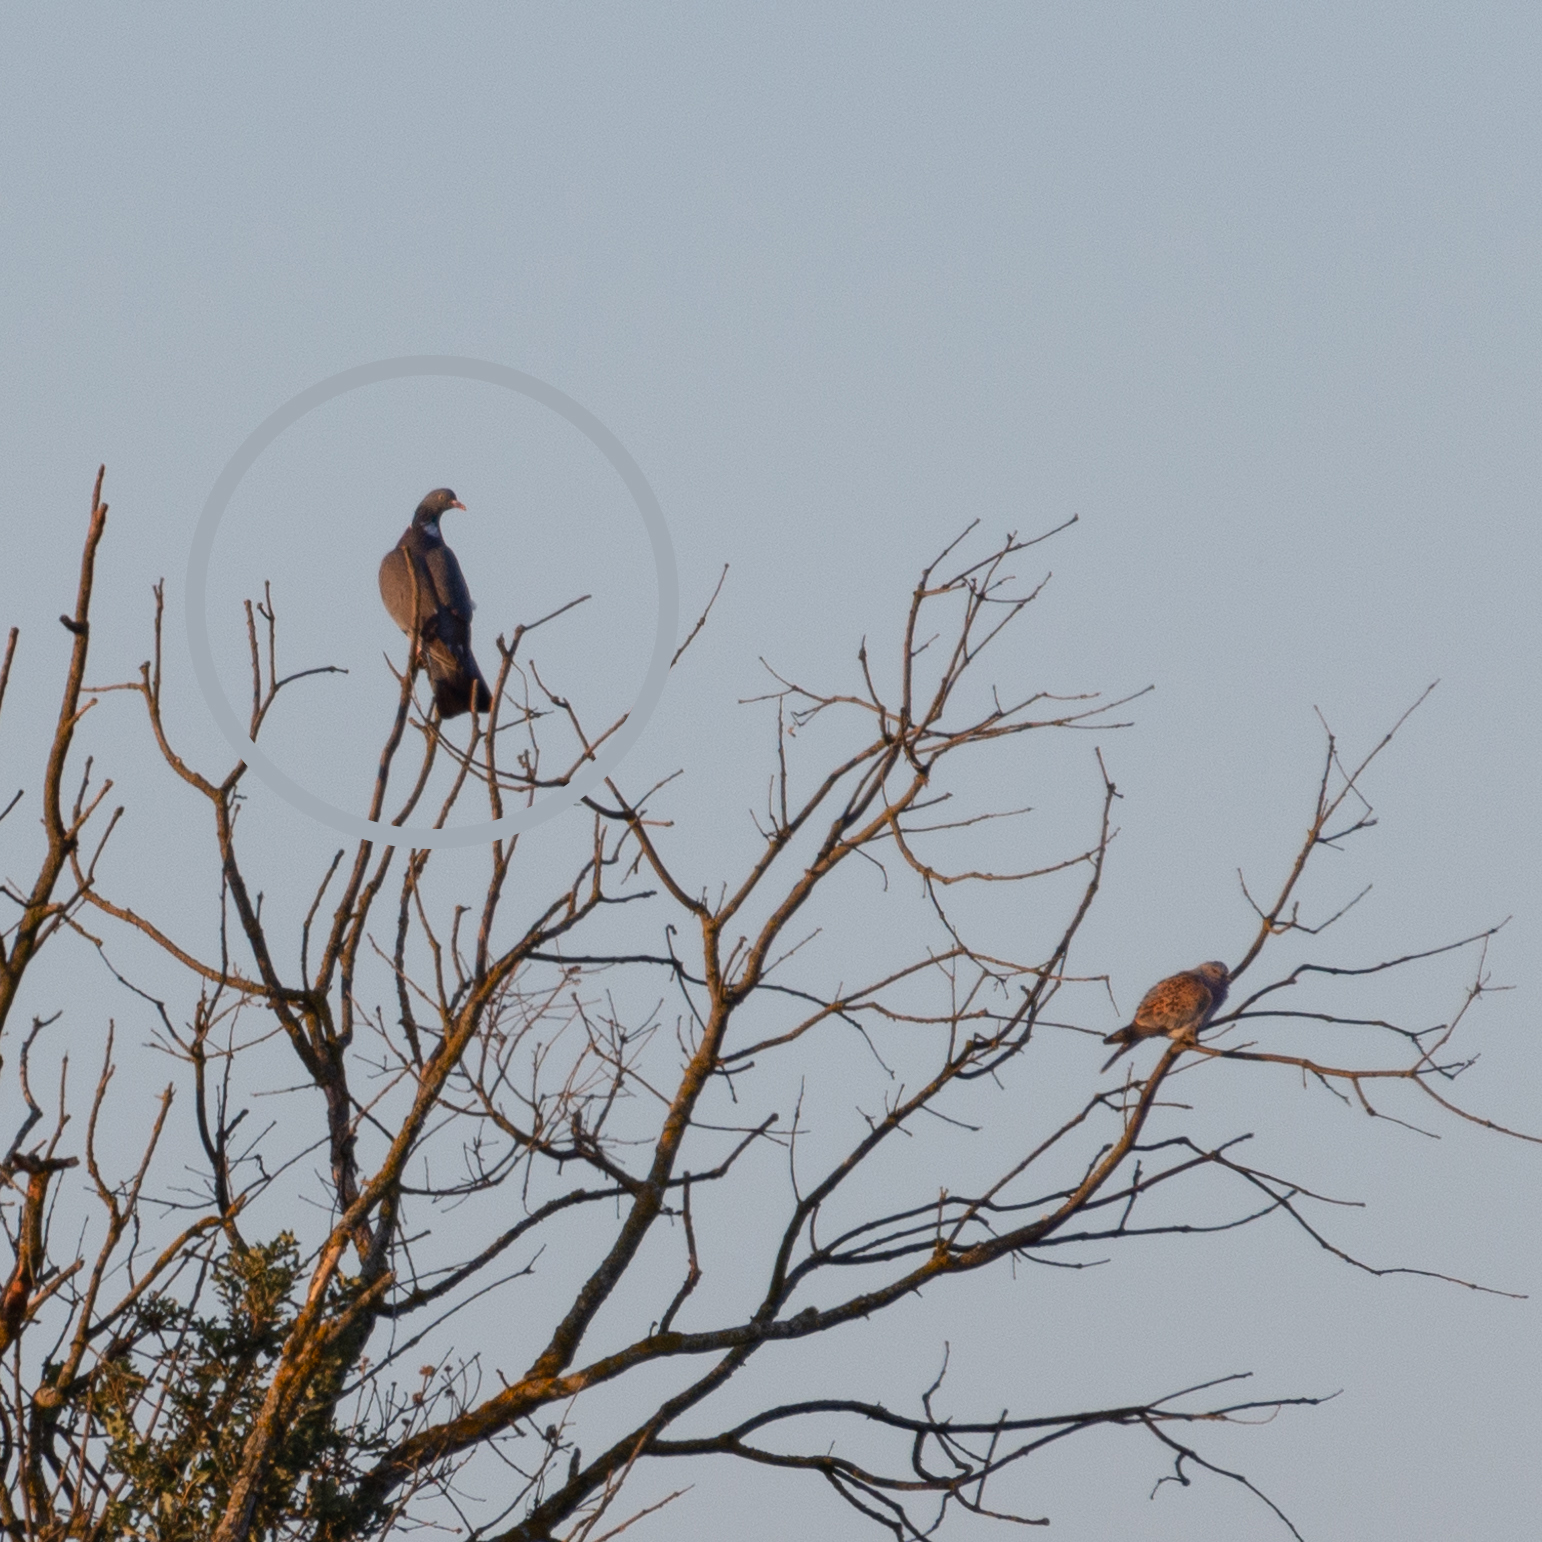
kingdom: Animalia
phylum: Chordata
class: Aves
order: Columbiformes
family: Columbidae
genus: Columba
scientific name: Columba palumbus
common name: Common wood pigeon
